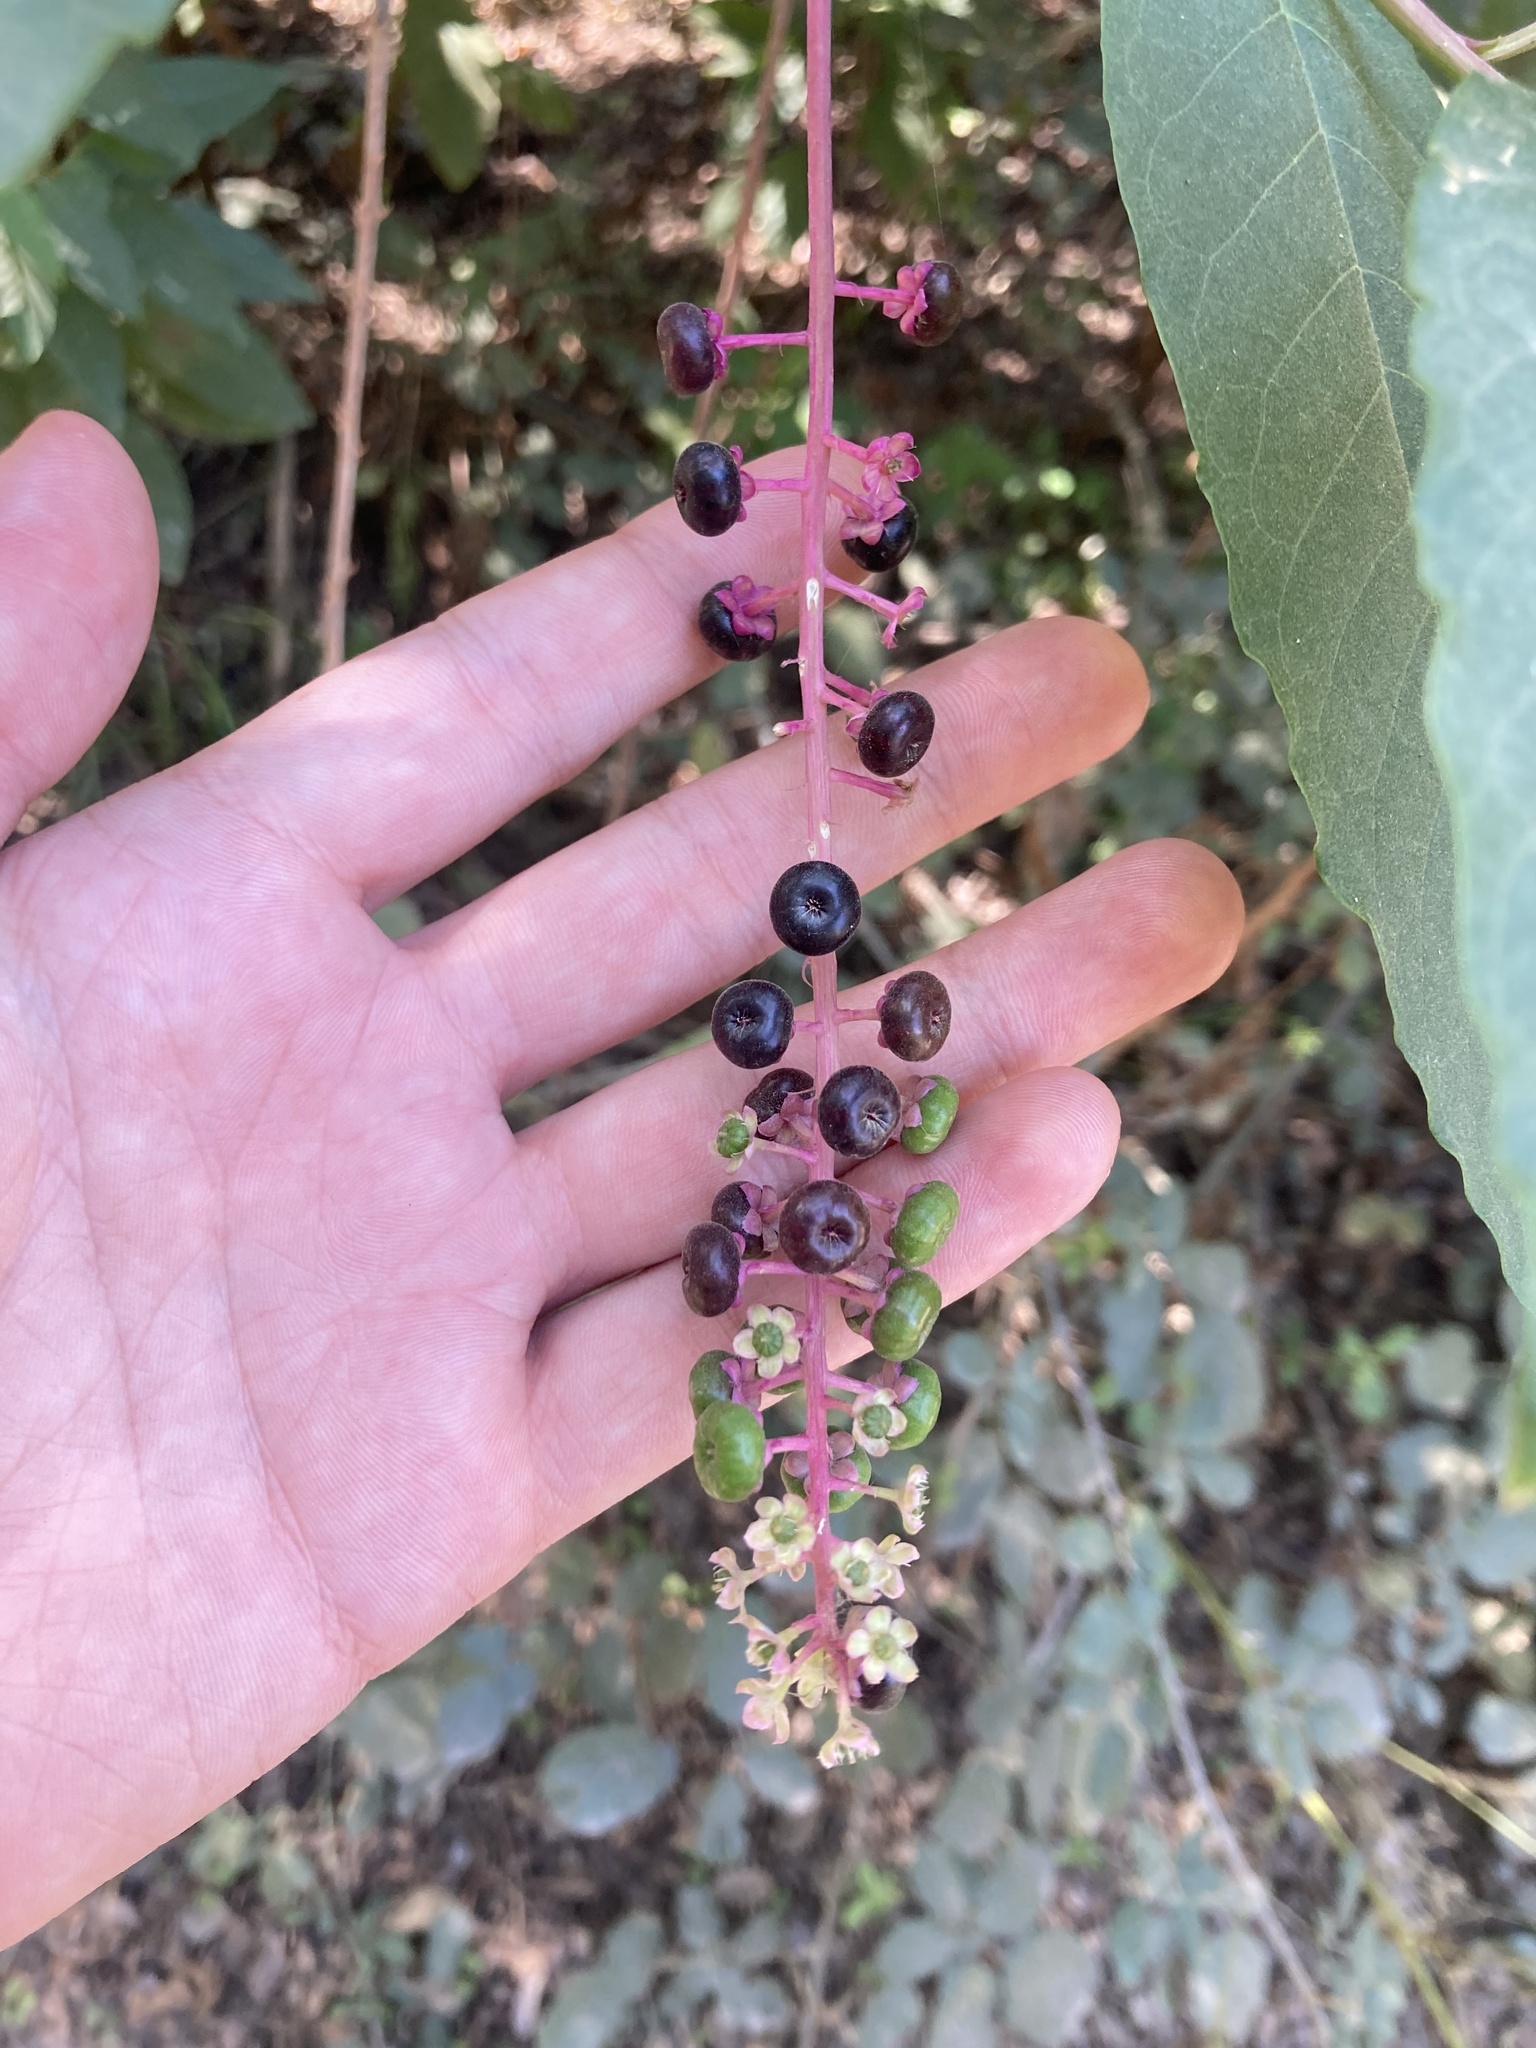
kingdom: Plantae
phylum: Tracheophyta
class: Magnoliopsida
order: Caryophyllales
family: Phytolaccaceae
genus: Phytolacca
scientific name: Phytolacca americana
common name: American pokeweed
